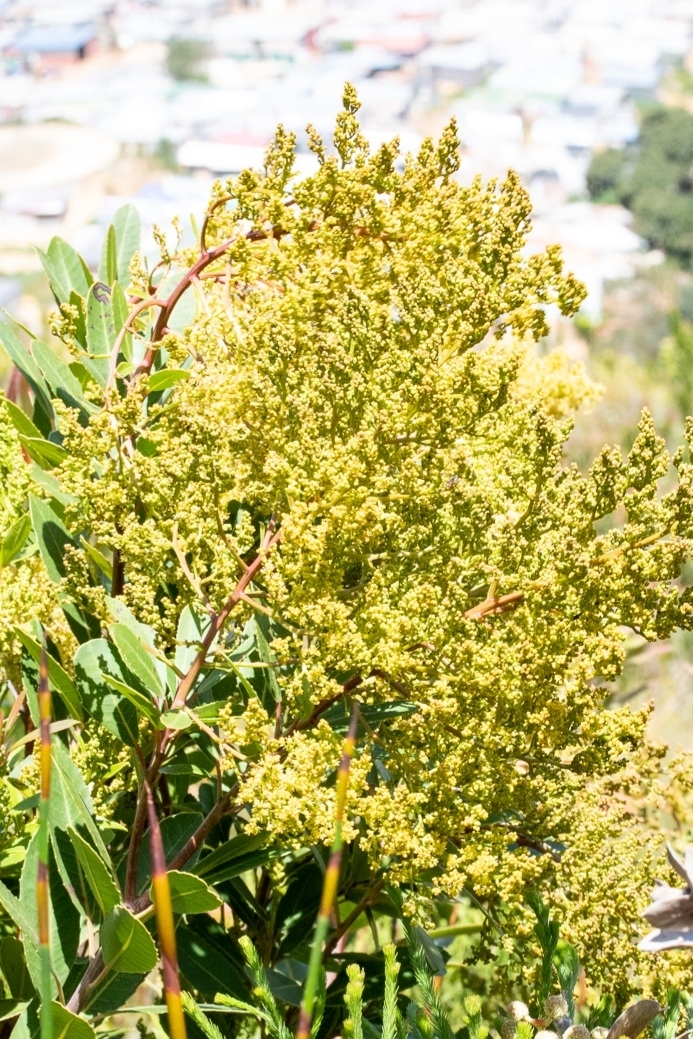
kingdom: Plantae
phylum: Tracheophyta
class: Magnoliopsida
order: Sapindales
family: Anacardiaceae
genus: Laurophyllus
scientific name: Laurophyllus capensis
